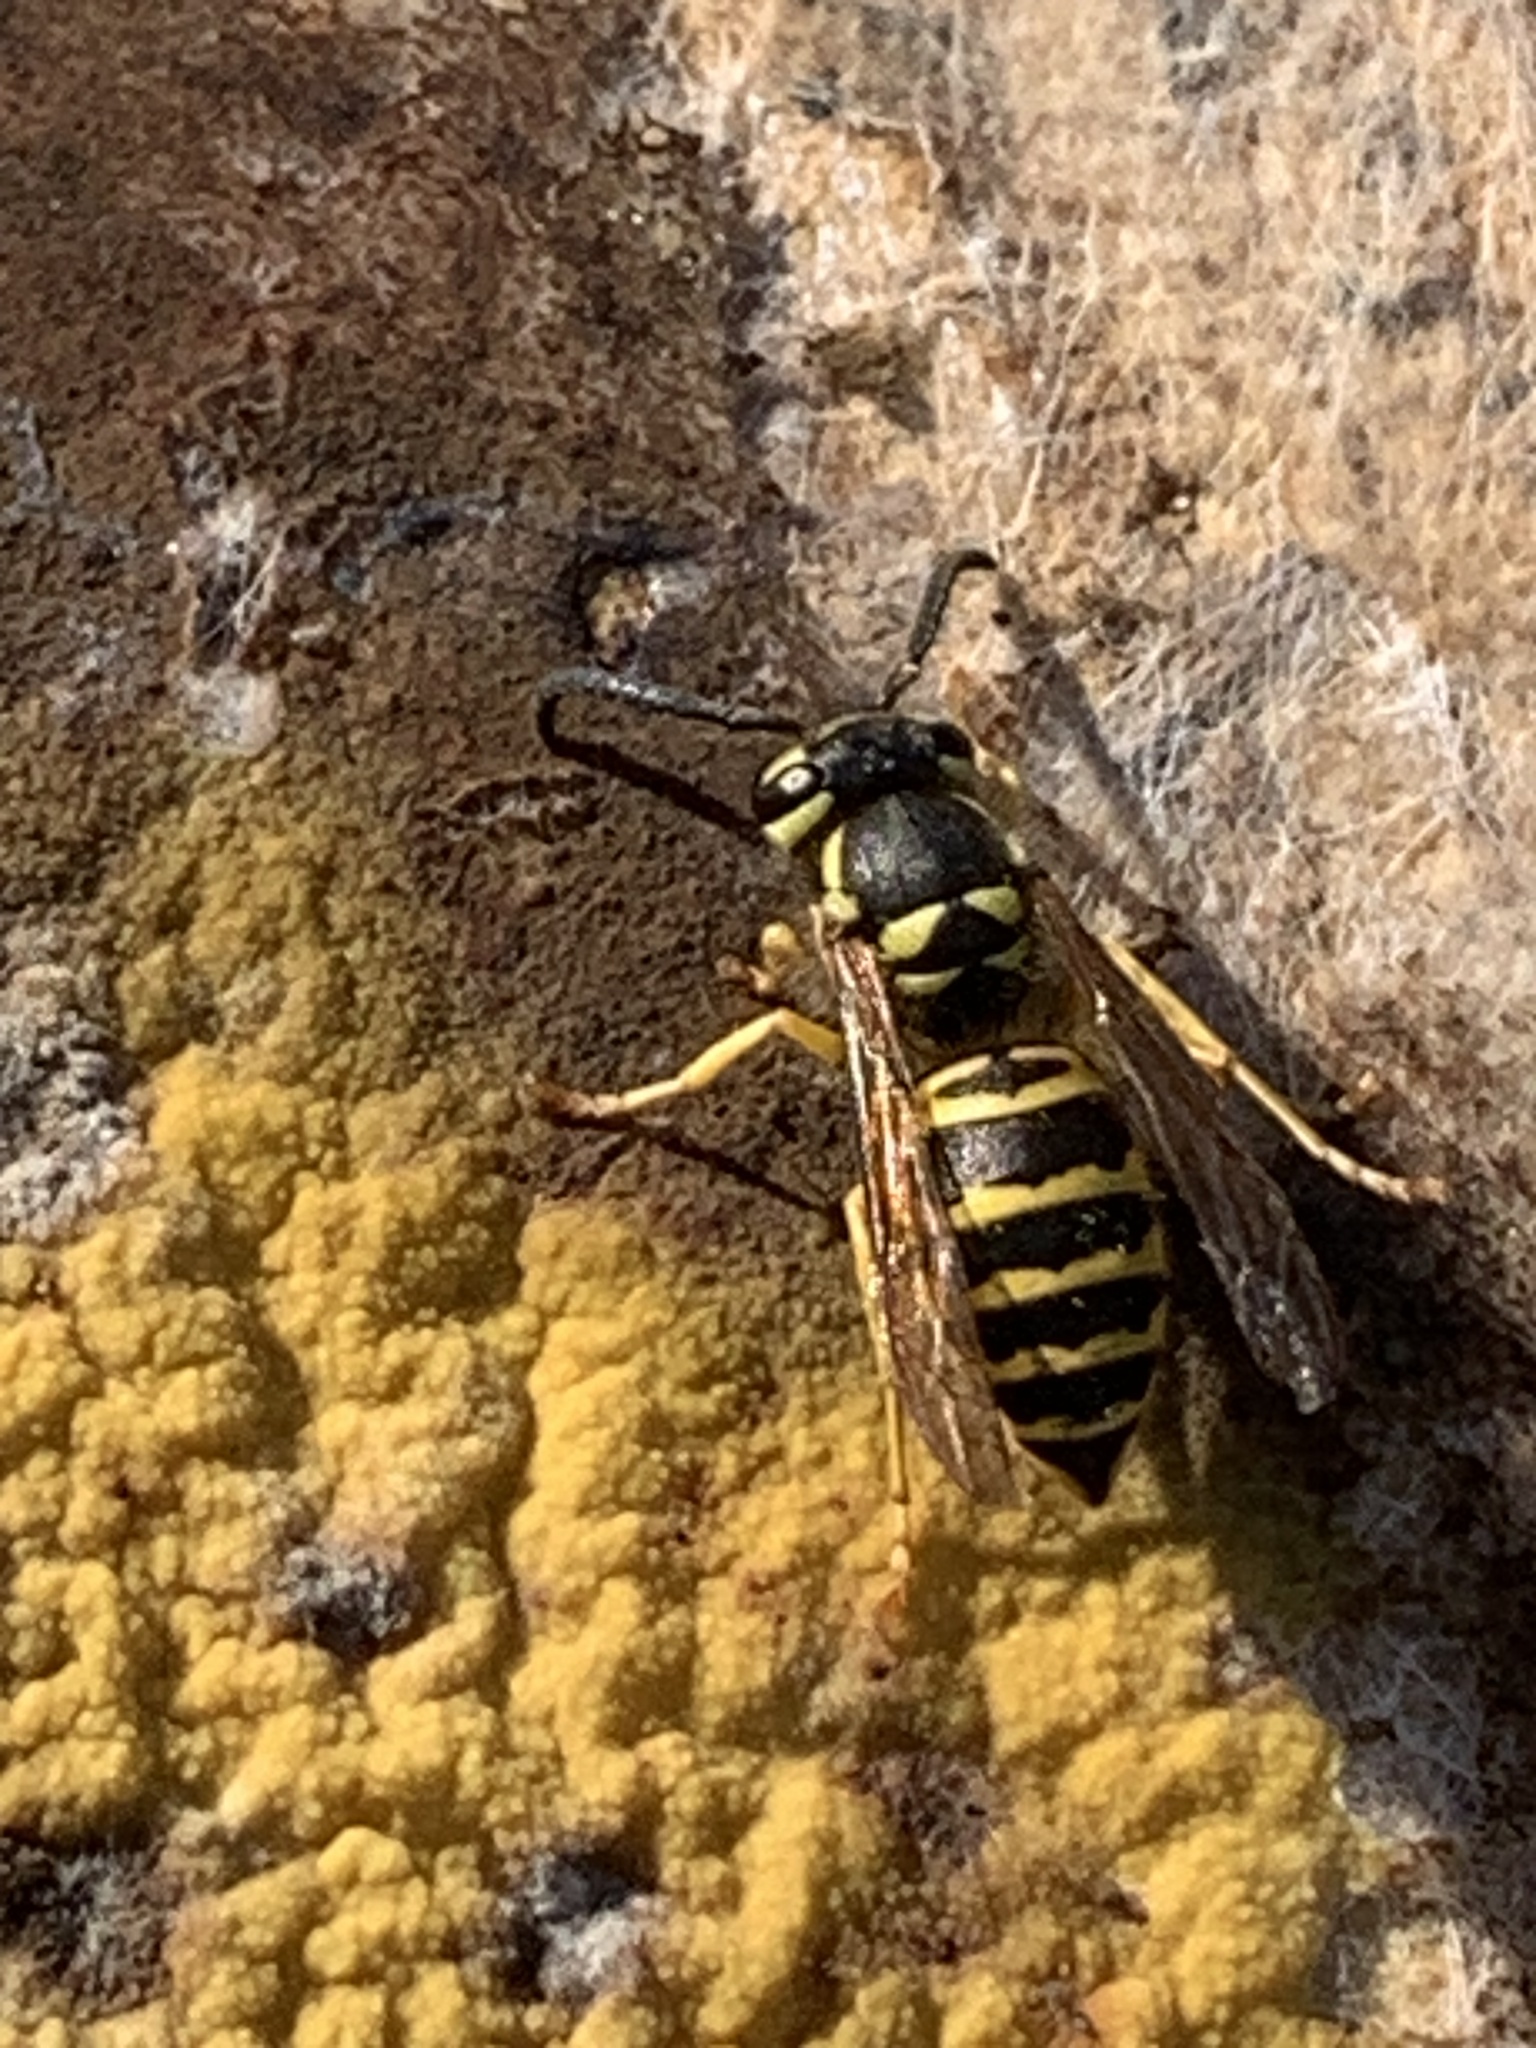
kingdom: Animalia
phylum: Arthropoda
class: Insecta
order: Hymenoptera
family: Vespidae
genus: Vespula
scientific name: Vespula maculifrons
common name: Eastern yellowjacket
